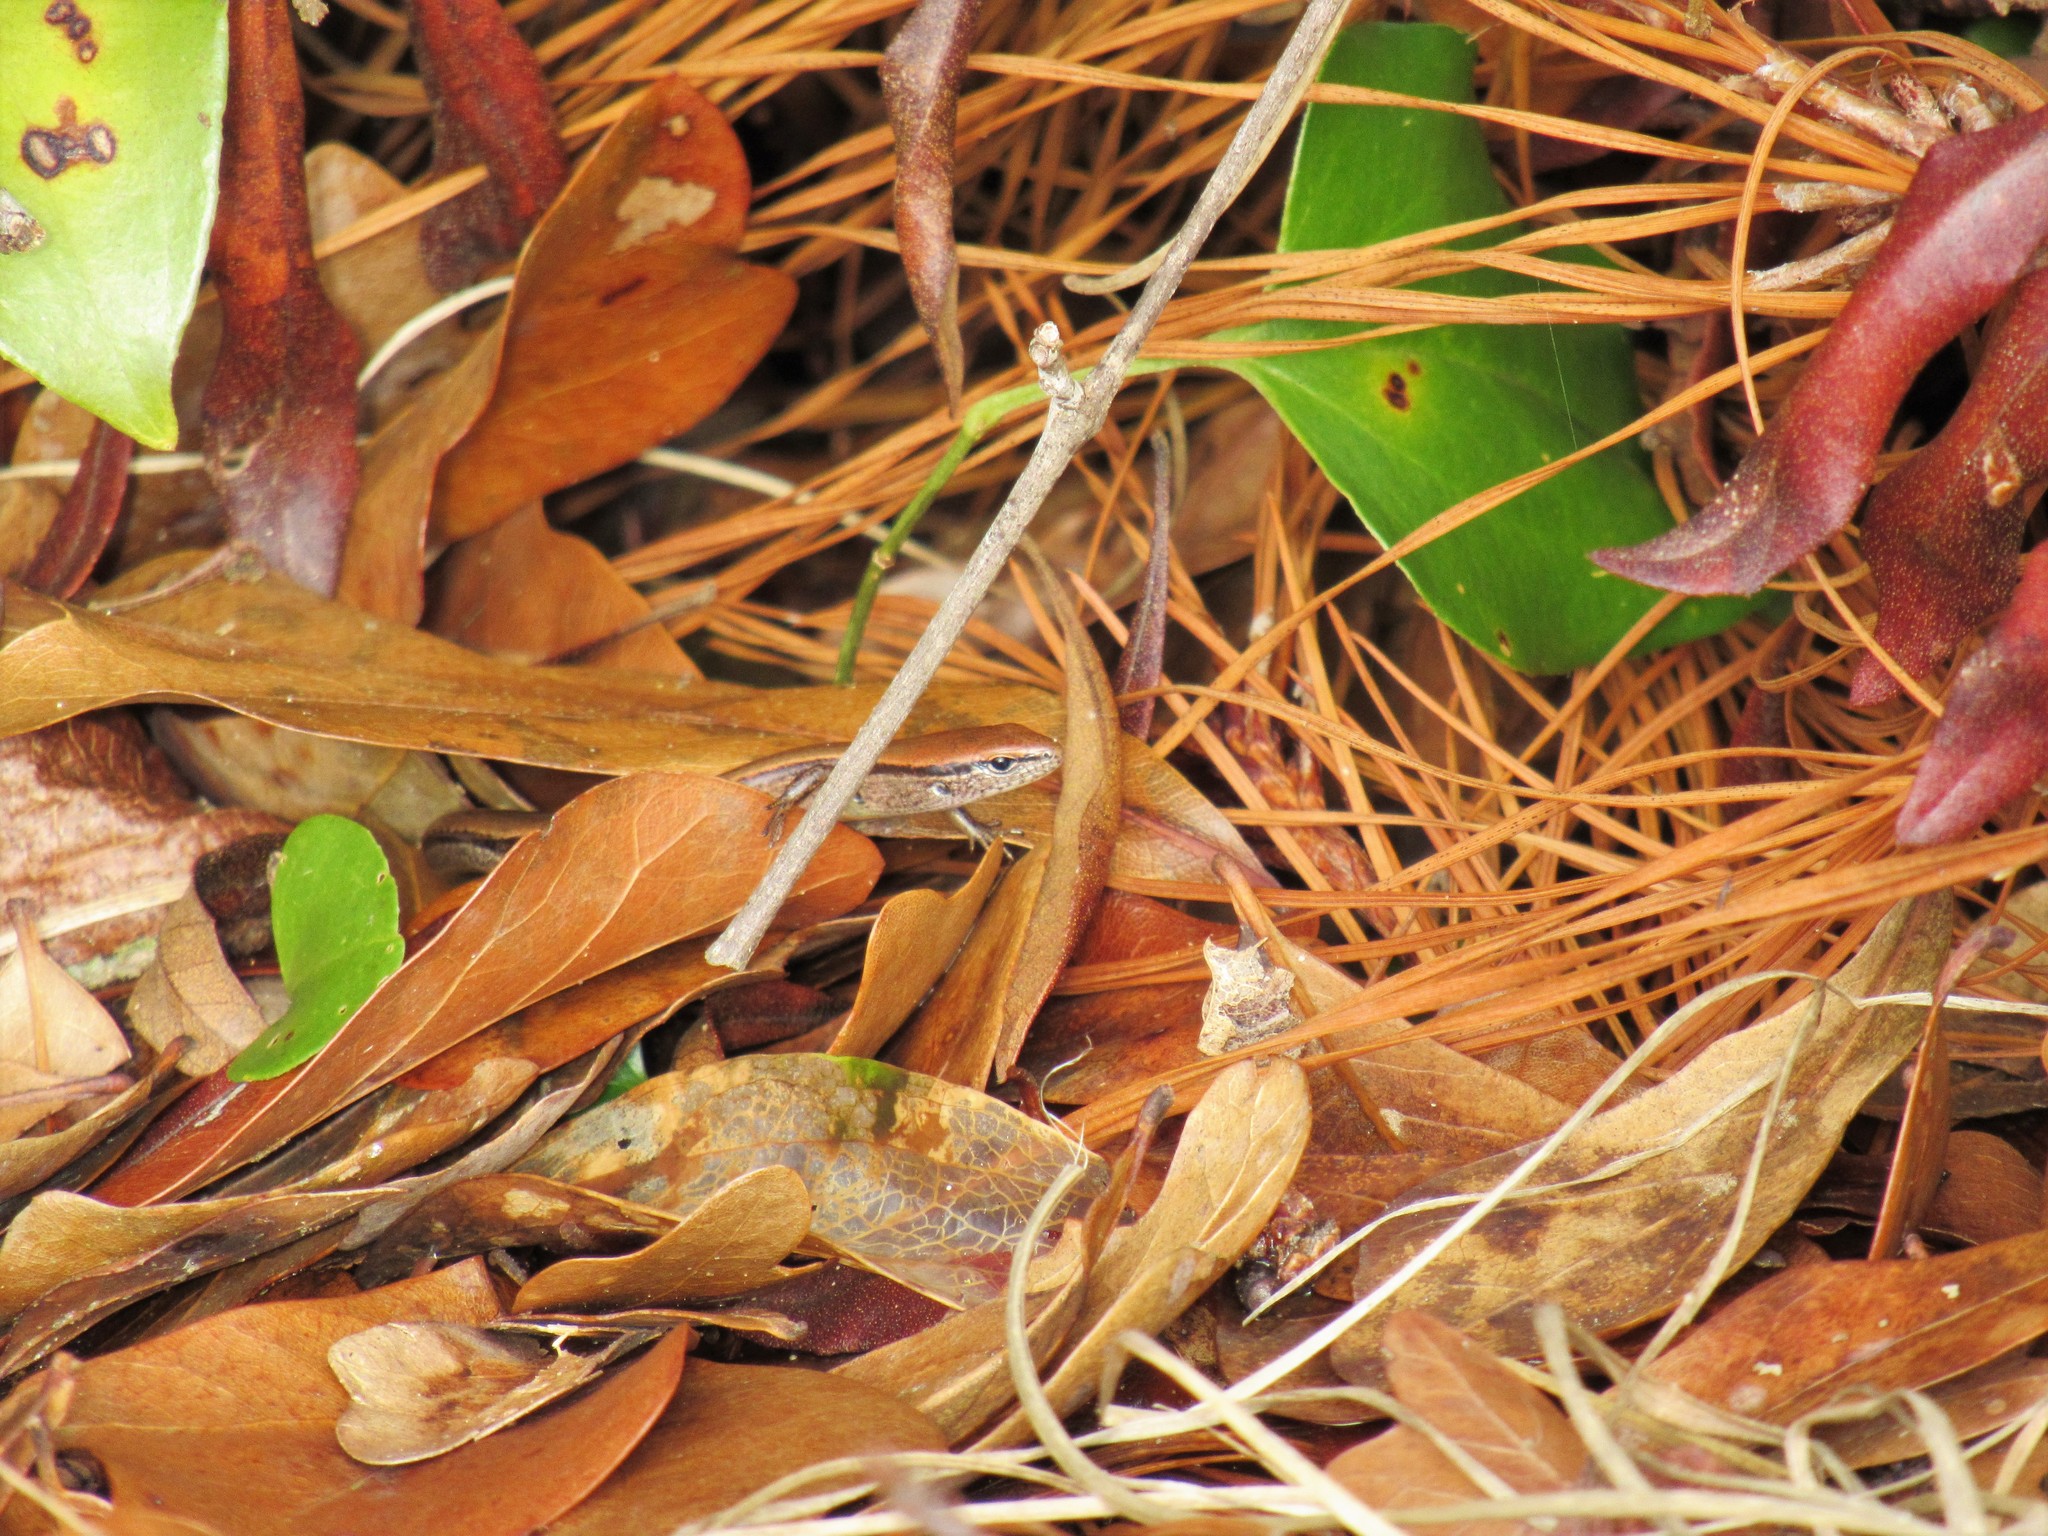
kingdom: Animalia
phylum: Chordata
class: Squamata
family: Scincidae
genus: Scincella
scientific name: Scincella lateralis
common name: Ground skink
